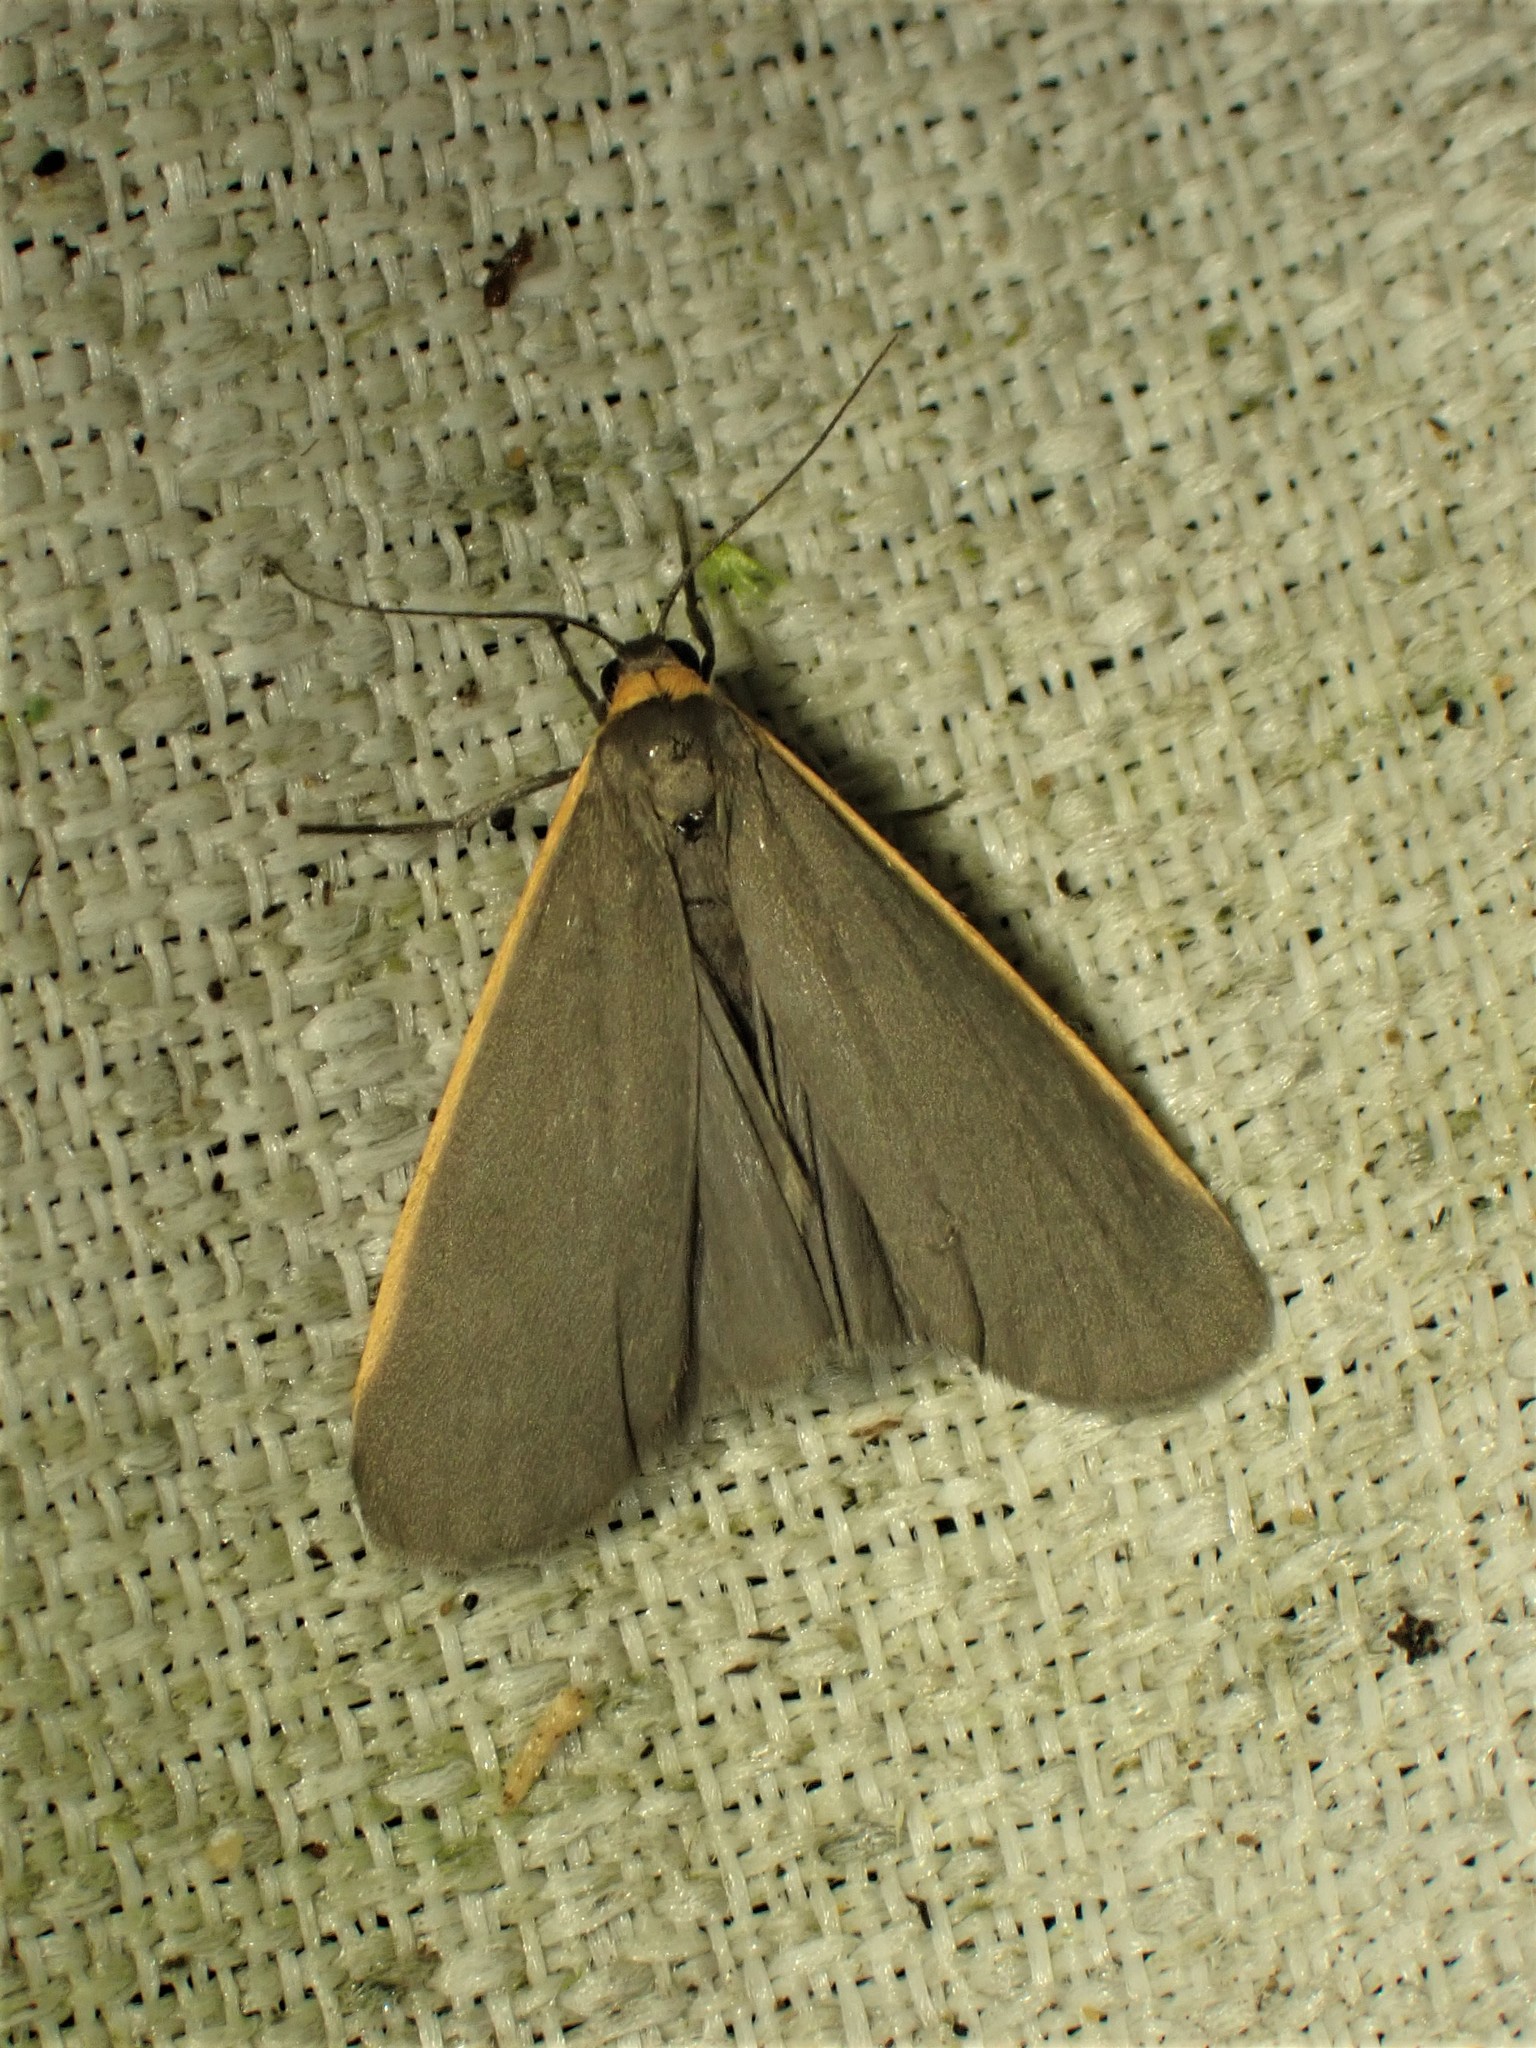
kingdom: Animalia
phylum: Arthropoda
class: Insecta
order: Lepidoptera
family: Erebidae
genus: Manulea
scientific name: Manulea bicolor
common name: Bicolored moth
